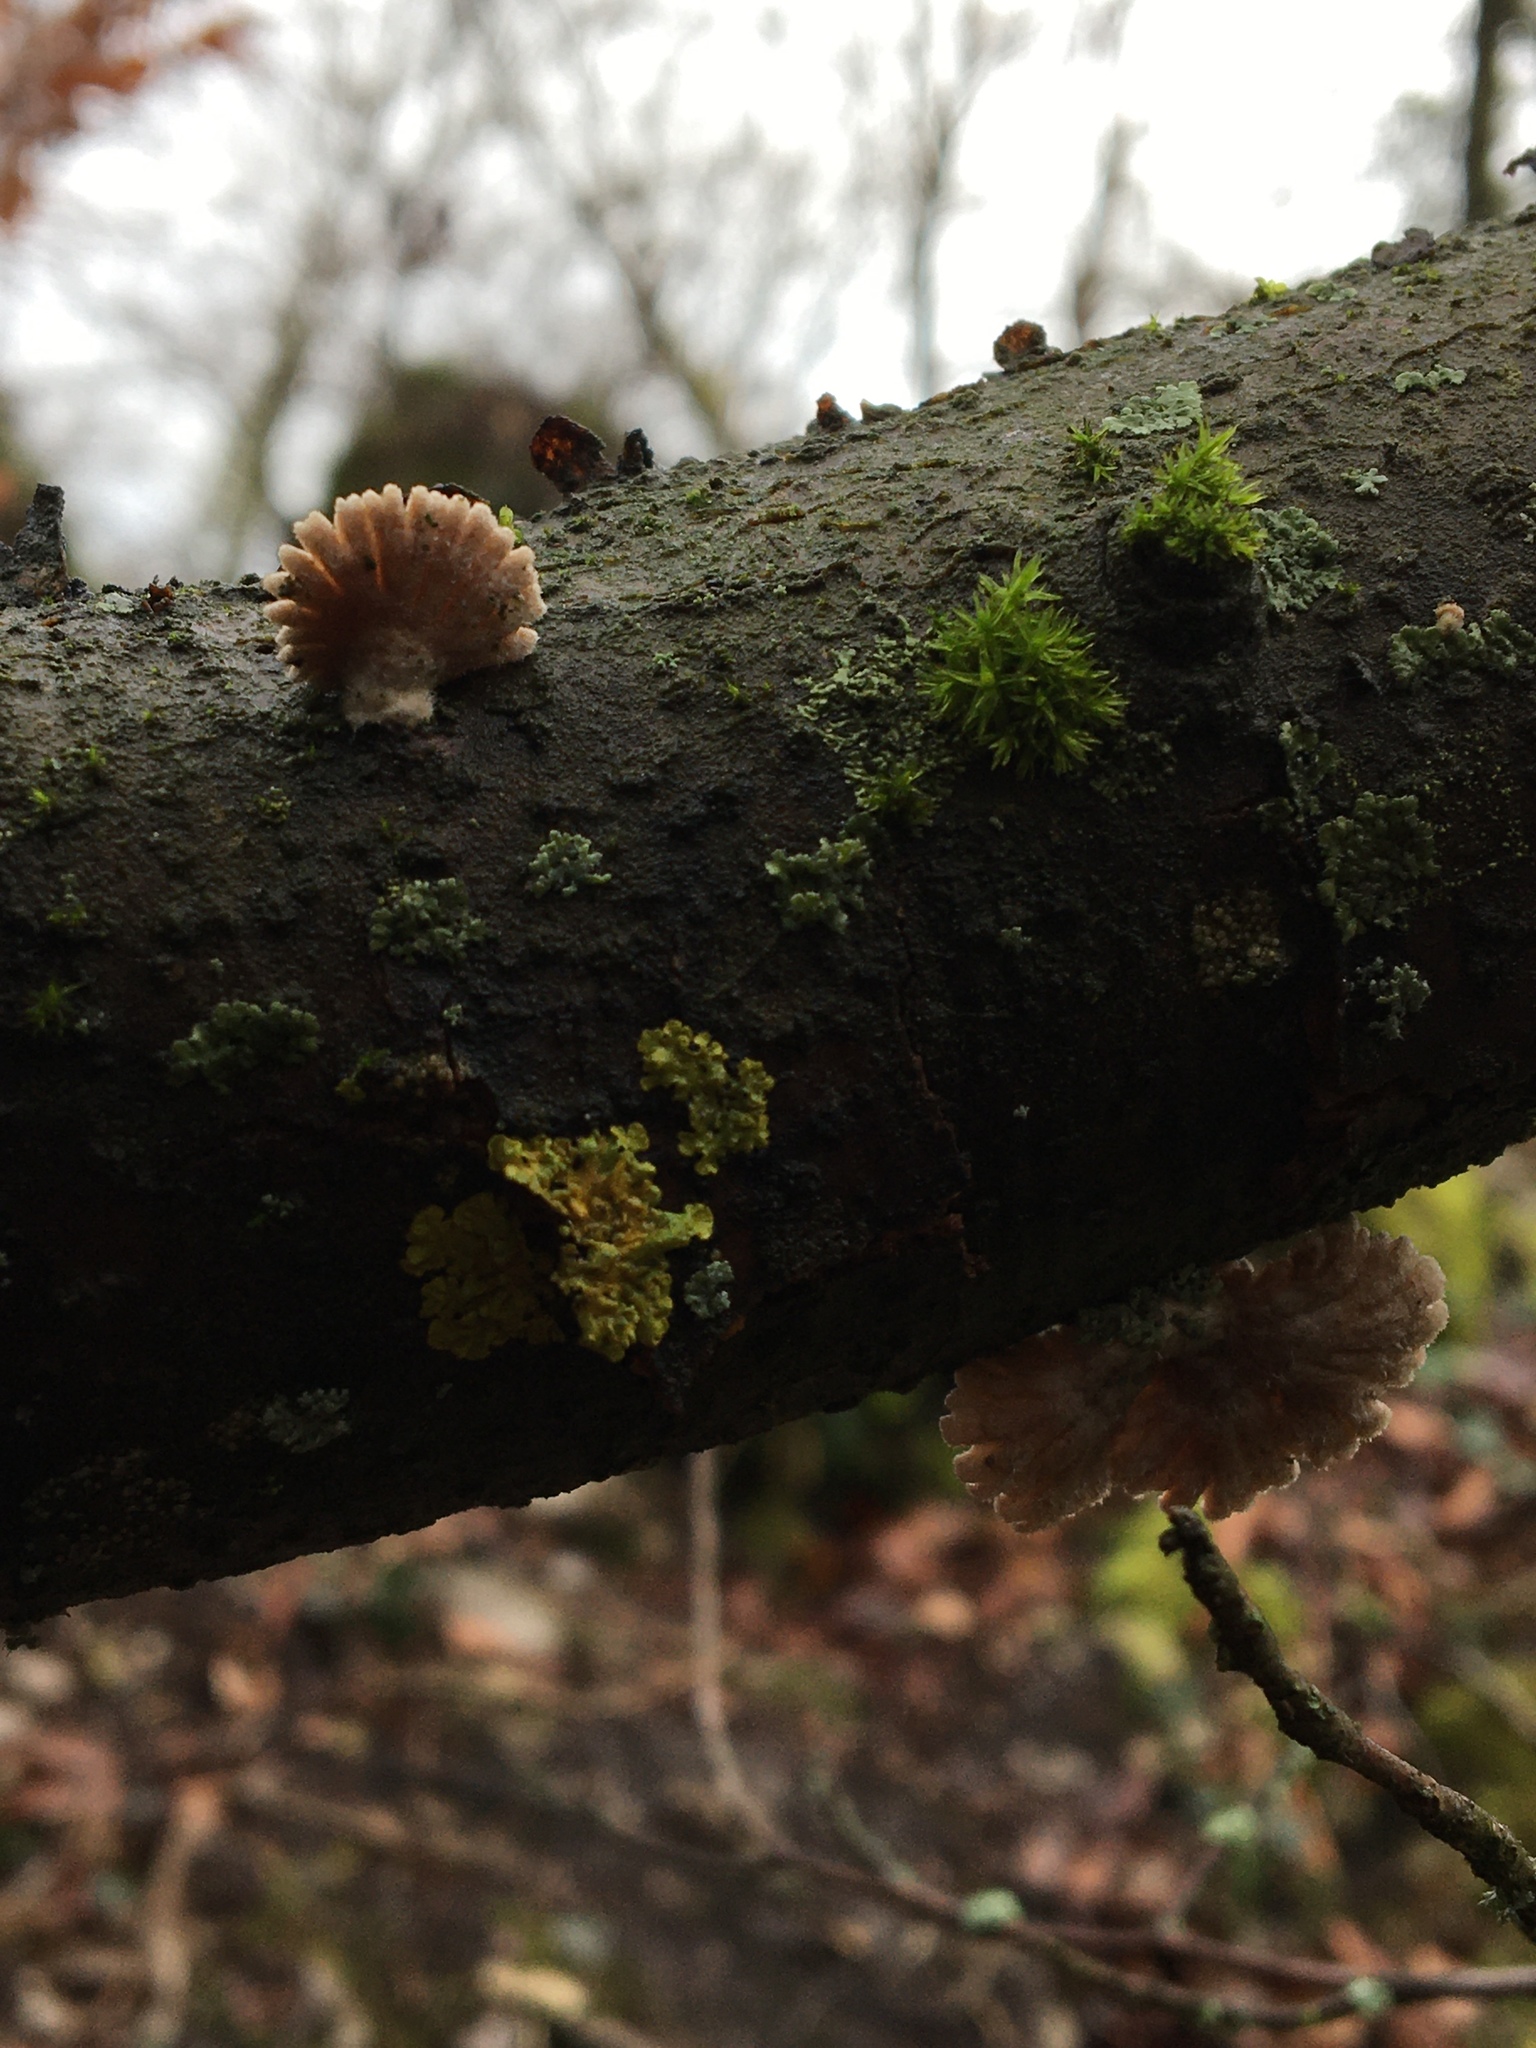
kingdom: Fungi
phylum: Basidiomycota
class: Agaricomycetes
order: Agaricales
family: Schizophyllaceae
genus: Schizophyllum
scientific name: Schizophyllum commune
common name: Common porecrust
